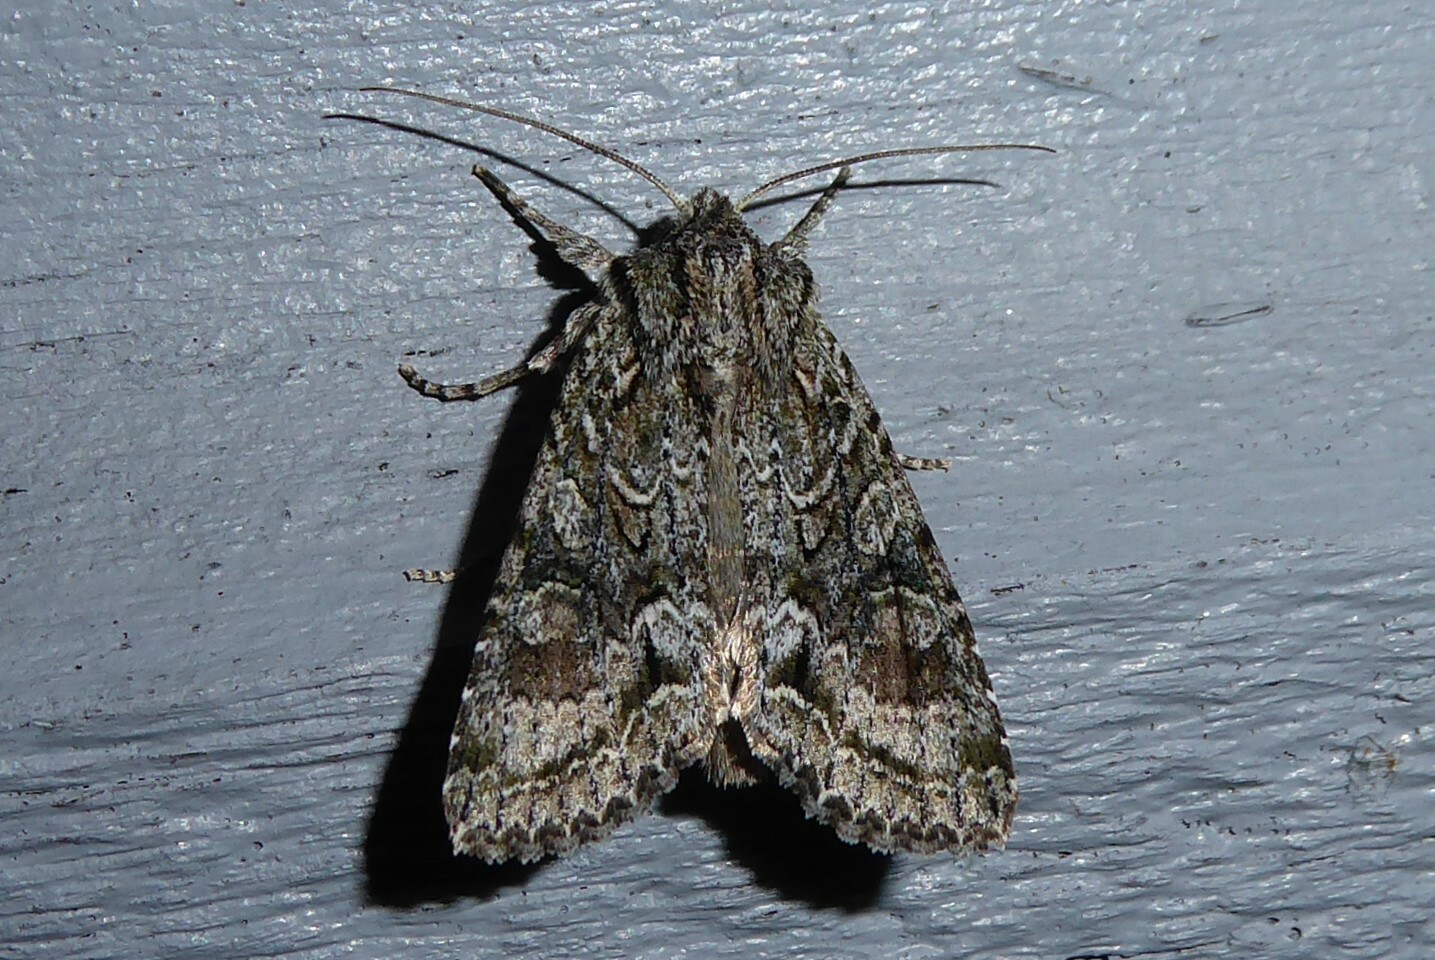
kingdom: Animalia
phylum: Arthropoda
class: Insecta
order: Lepidoptera
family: Noctuidae
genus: Ichneutica
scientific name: Ichneutica mutans
